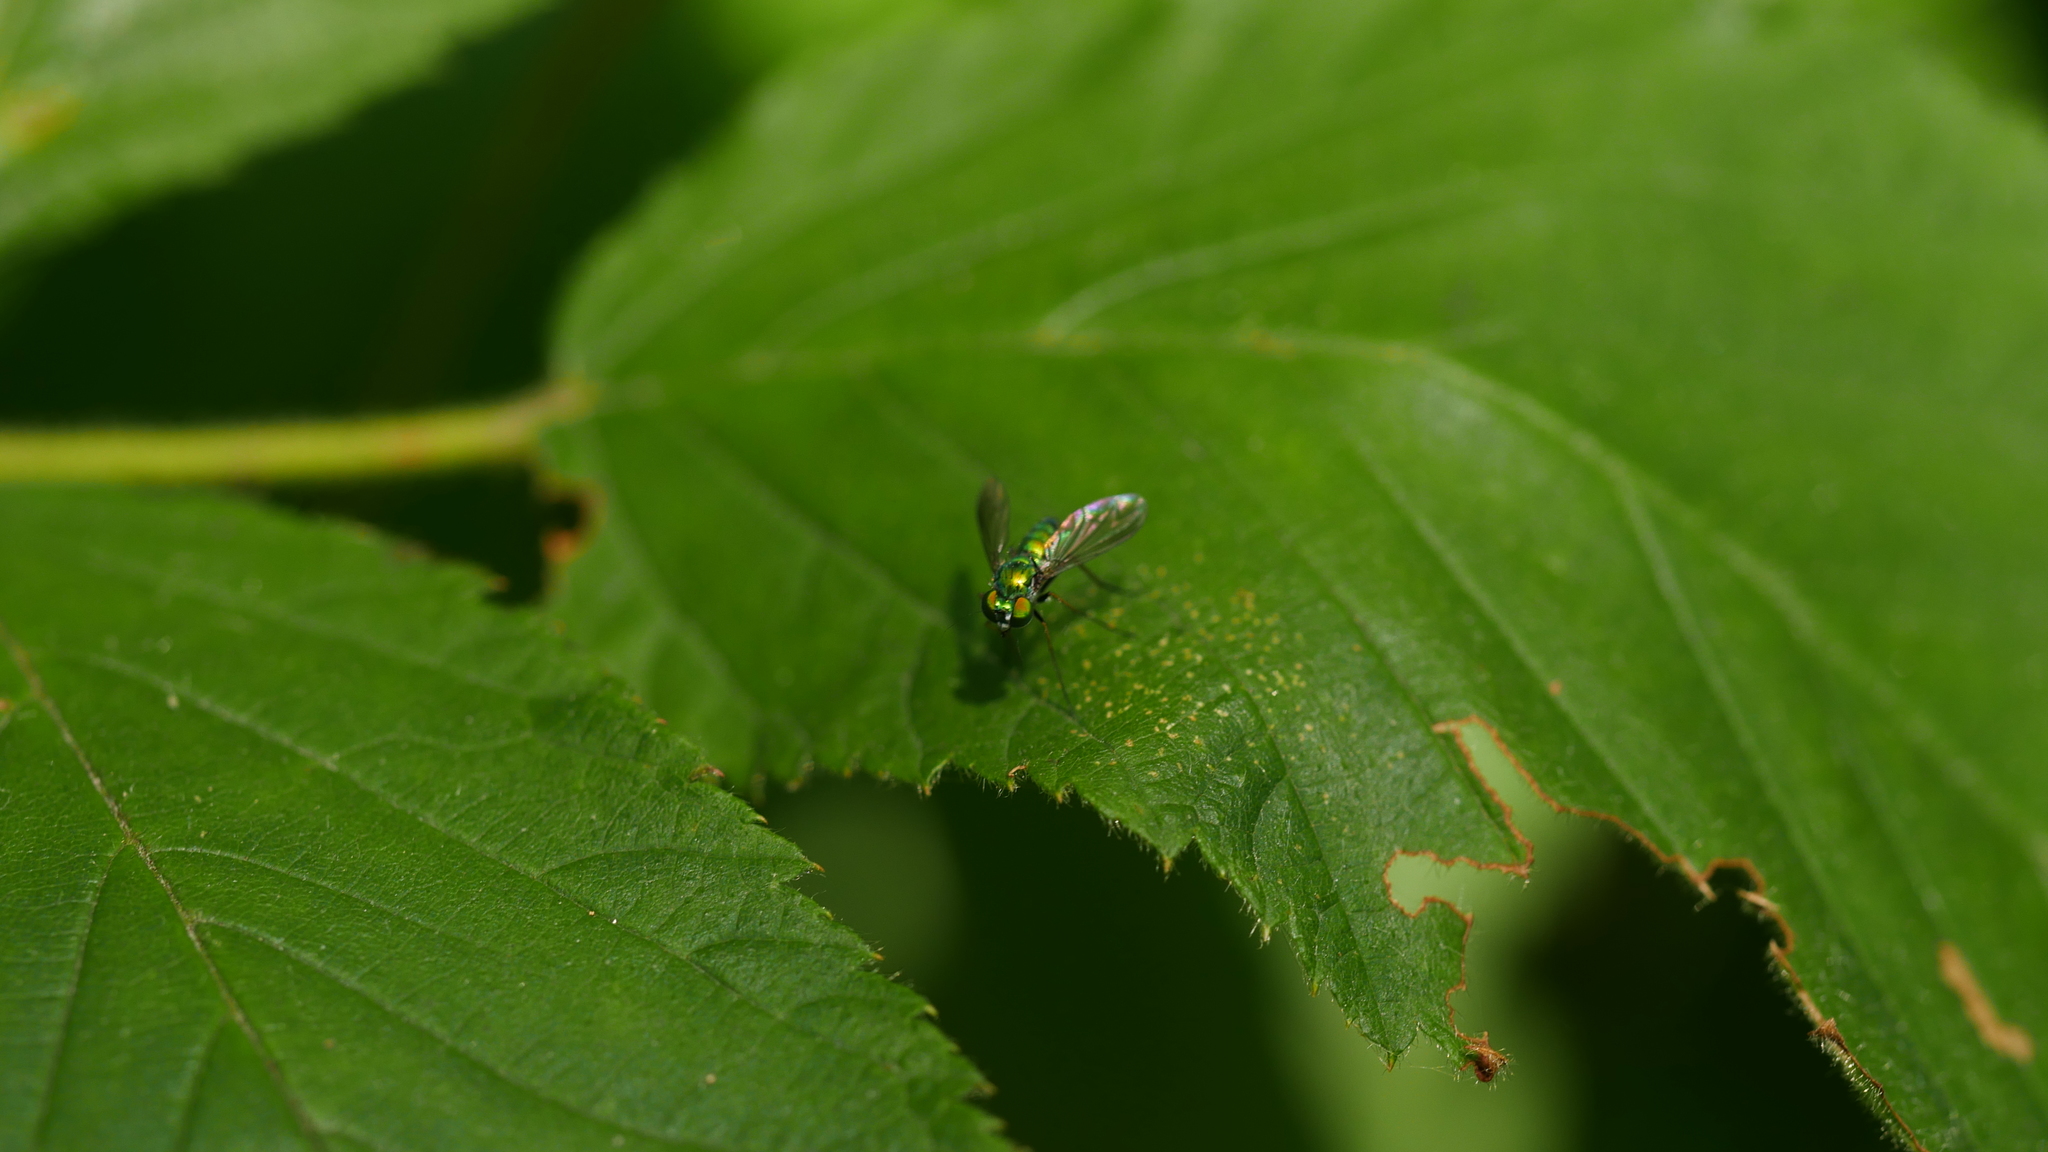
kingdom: Animalia
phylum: Arthropoda
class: Insecta
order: Diptera
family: Dolichopodidae
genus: Condylostylus
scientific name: Condylostylus
